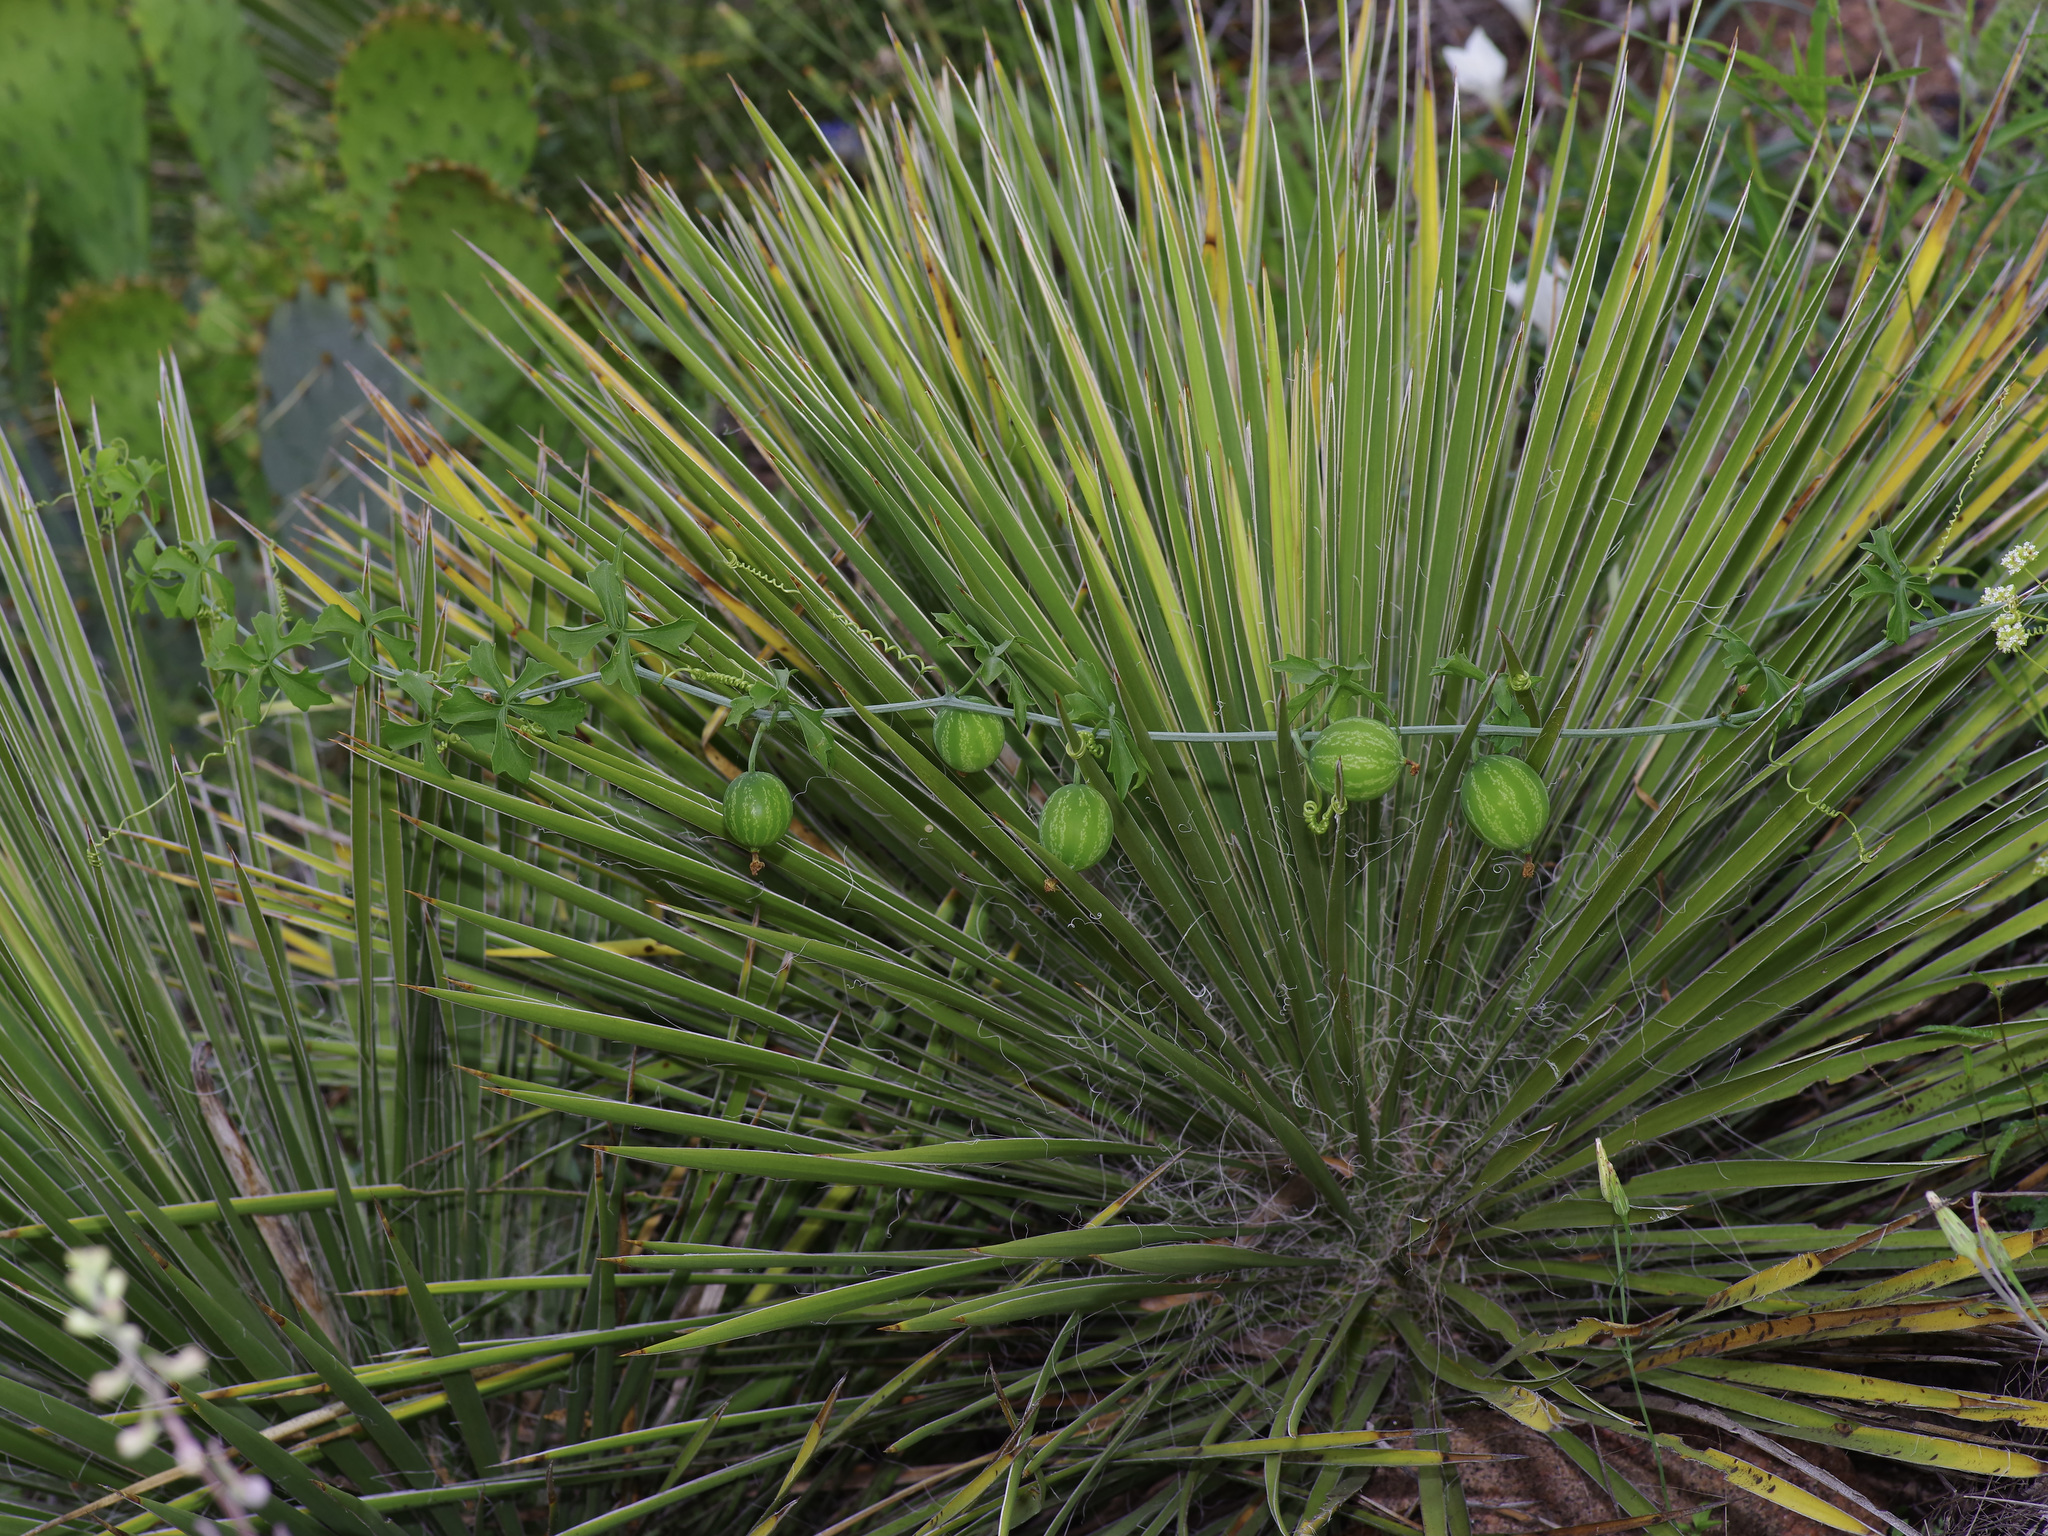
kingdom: Plantae
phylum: Tracheophyta
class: Magnoliopsida
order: Cucurbitales
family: Cucurbitaceae
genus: Ibervillea
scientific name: Ibervillea lindheimeri
